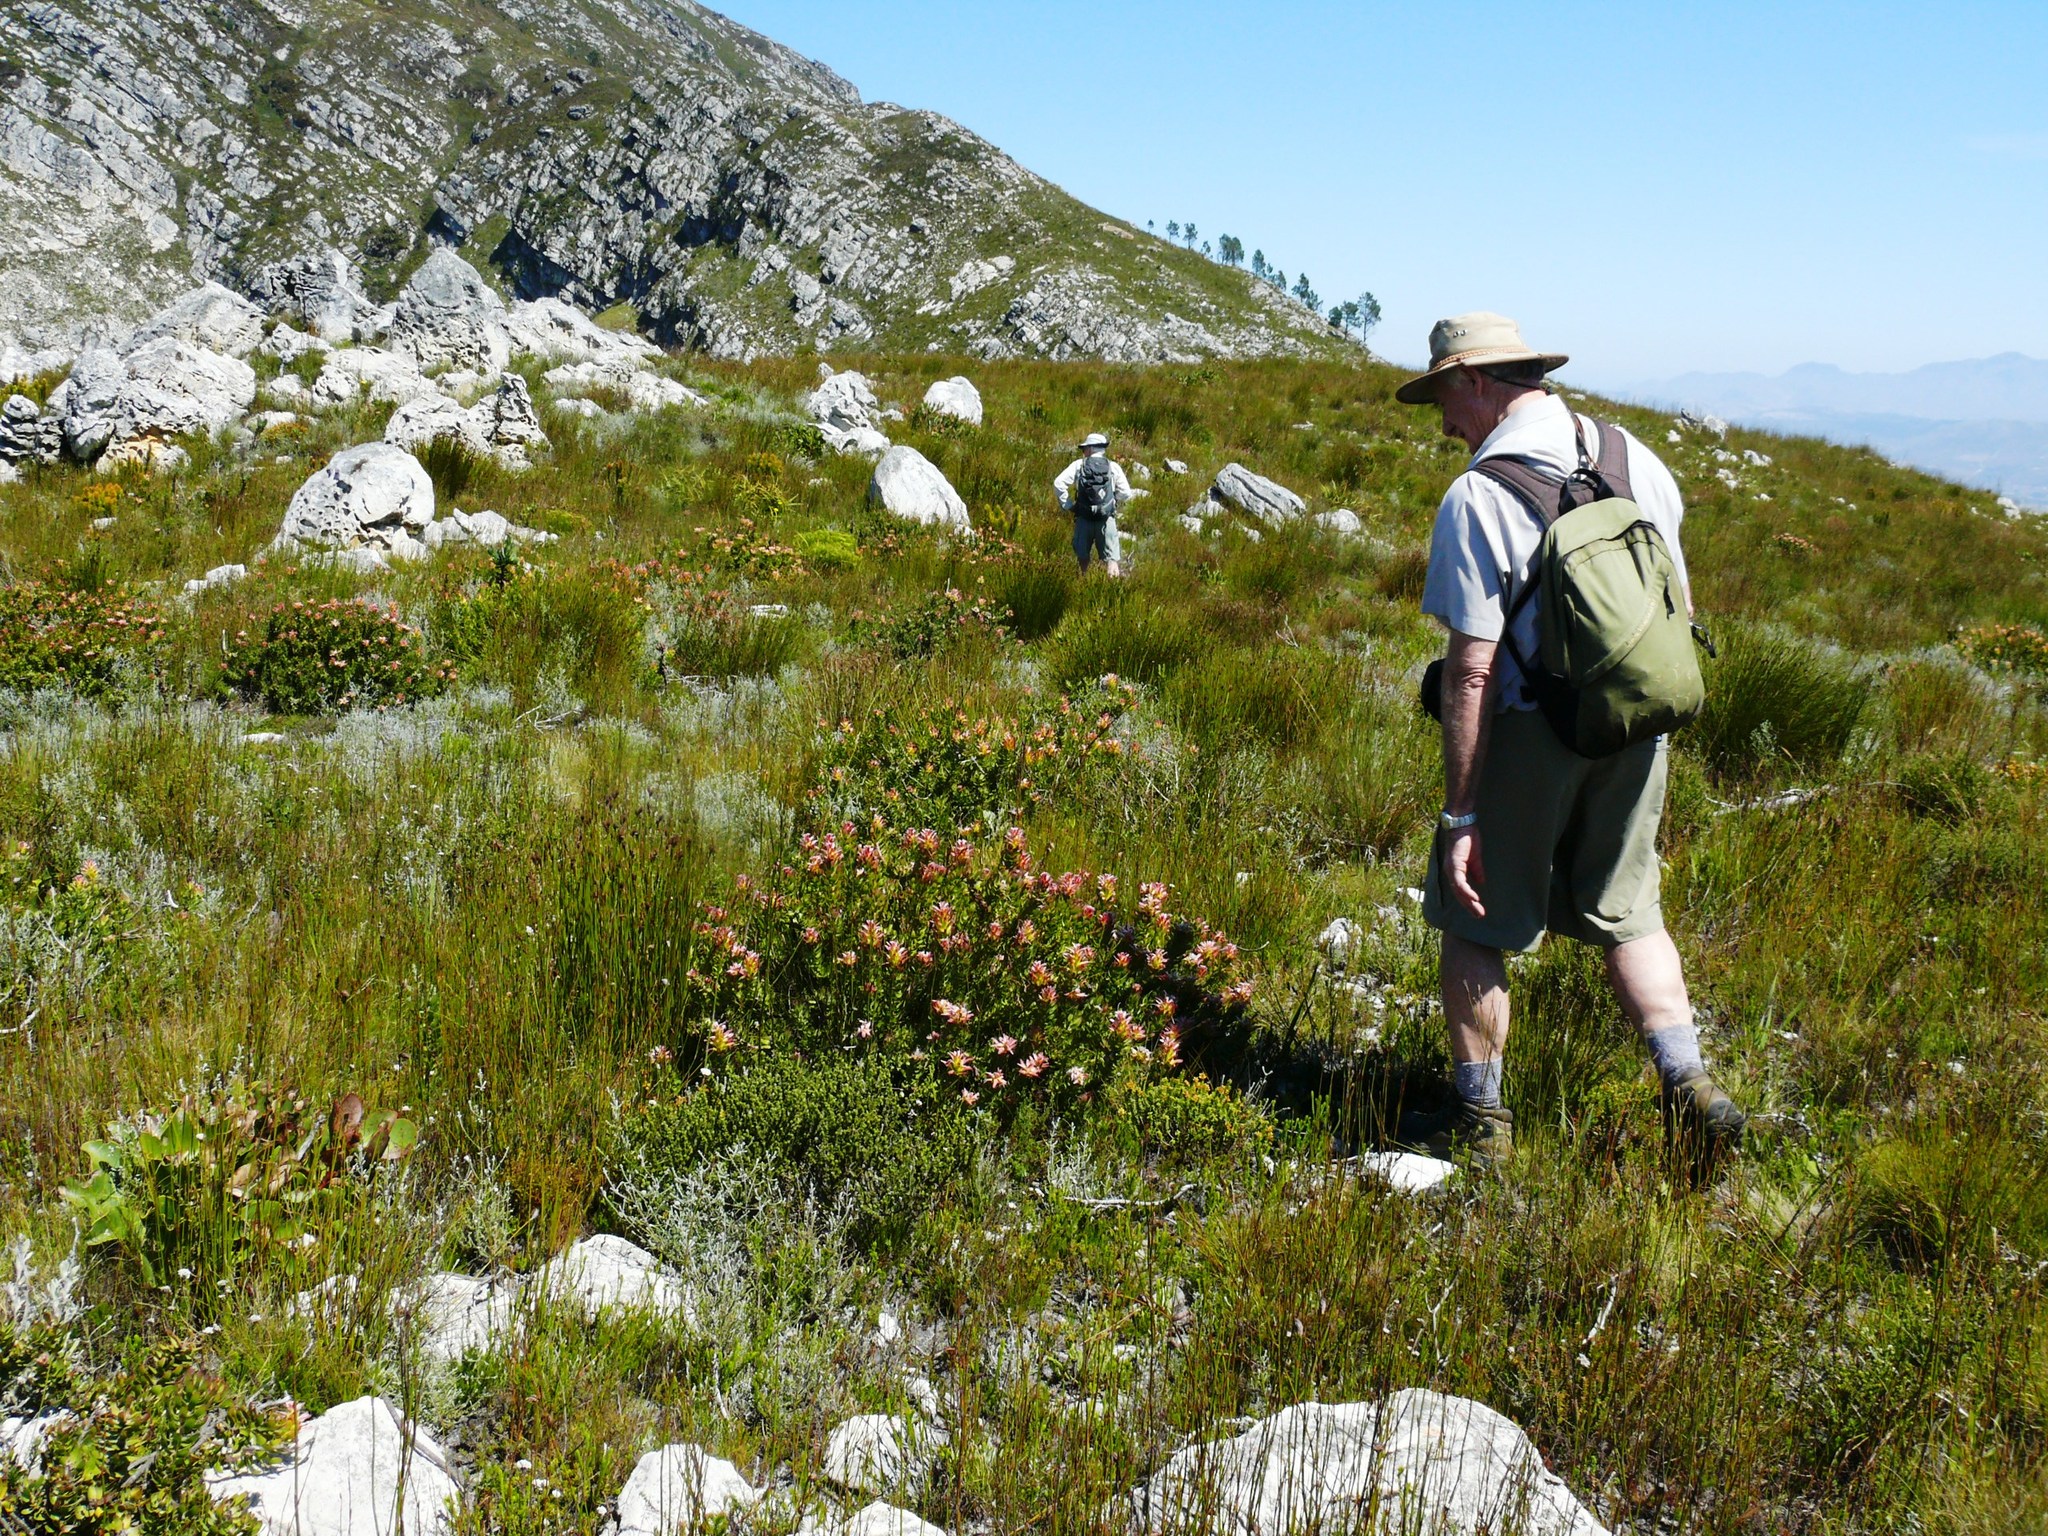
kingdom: Plantae
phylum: Tracheophyta
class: Magnoliopsida
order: Proteales
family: Proteaceae
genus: Mimetes
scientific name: Mimetes cucullatus
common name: Common pagoda
